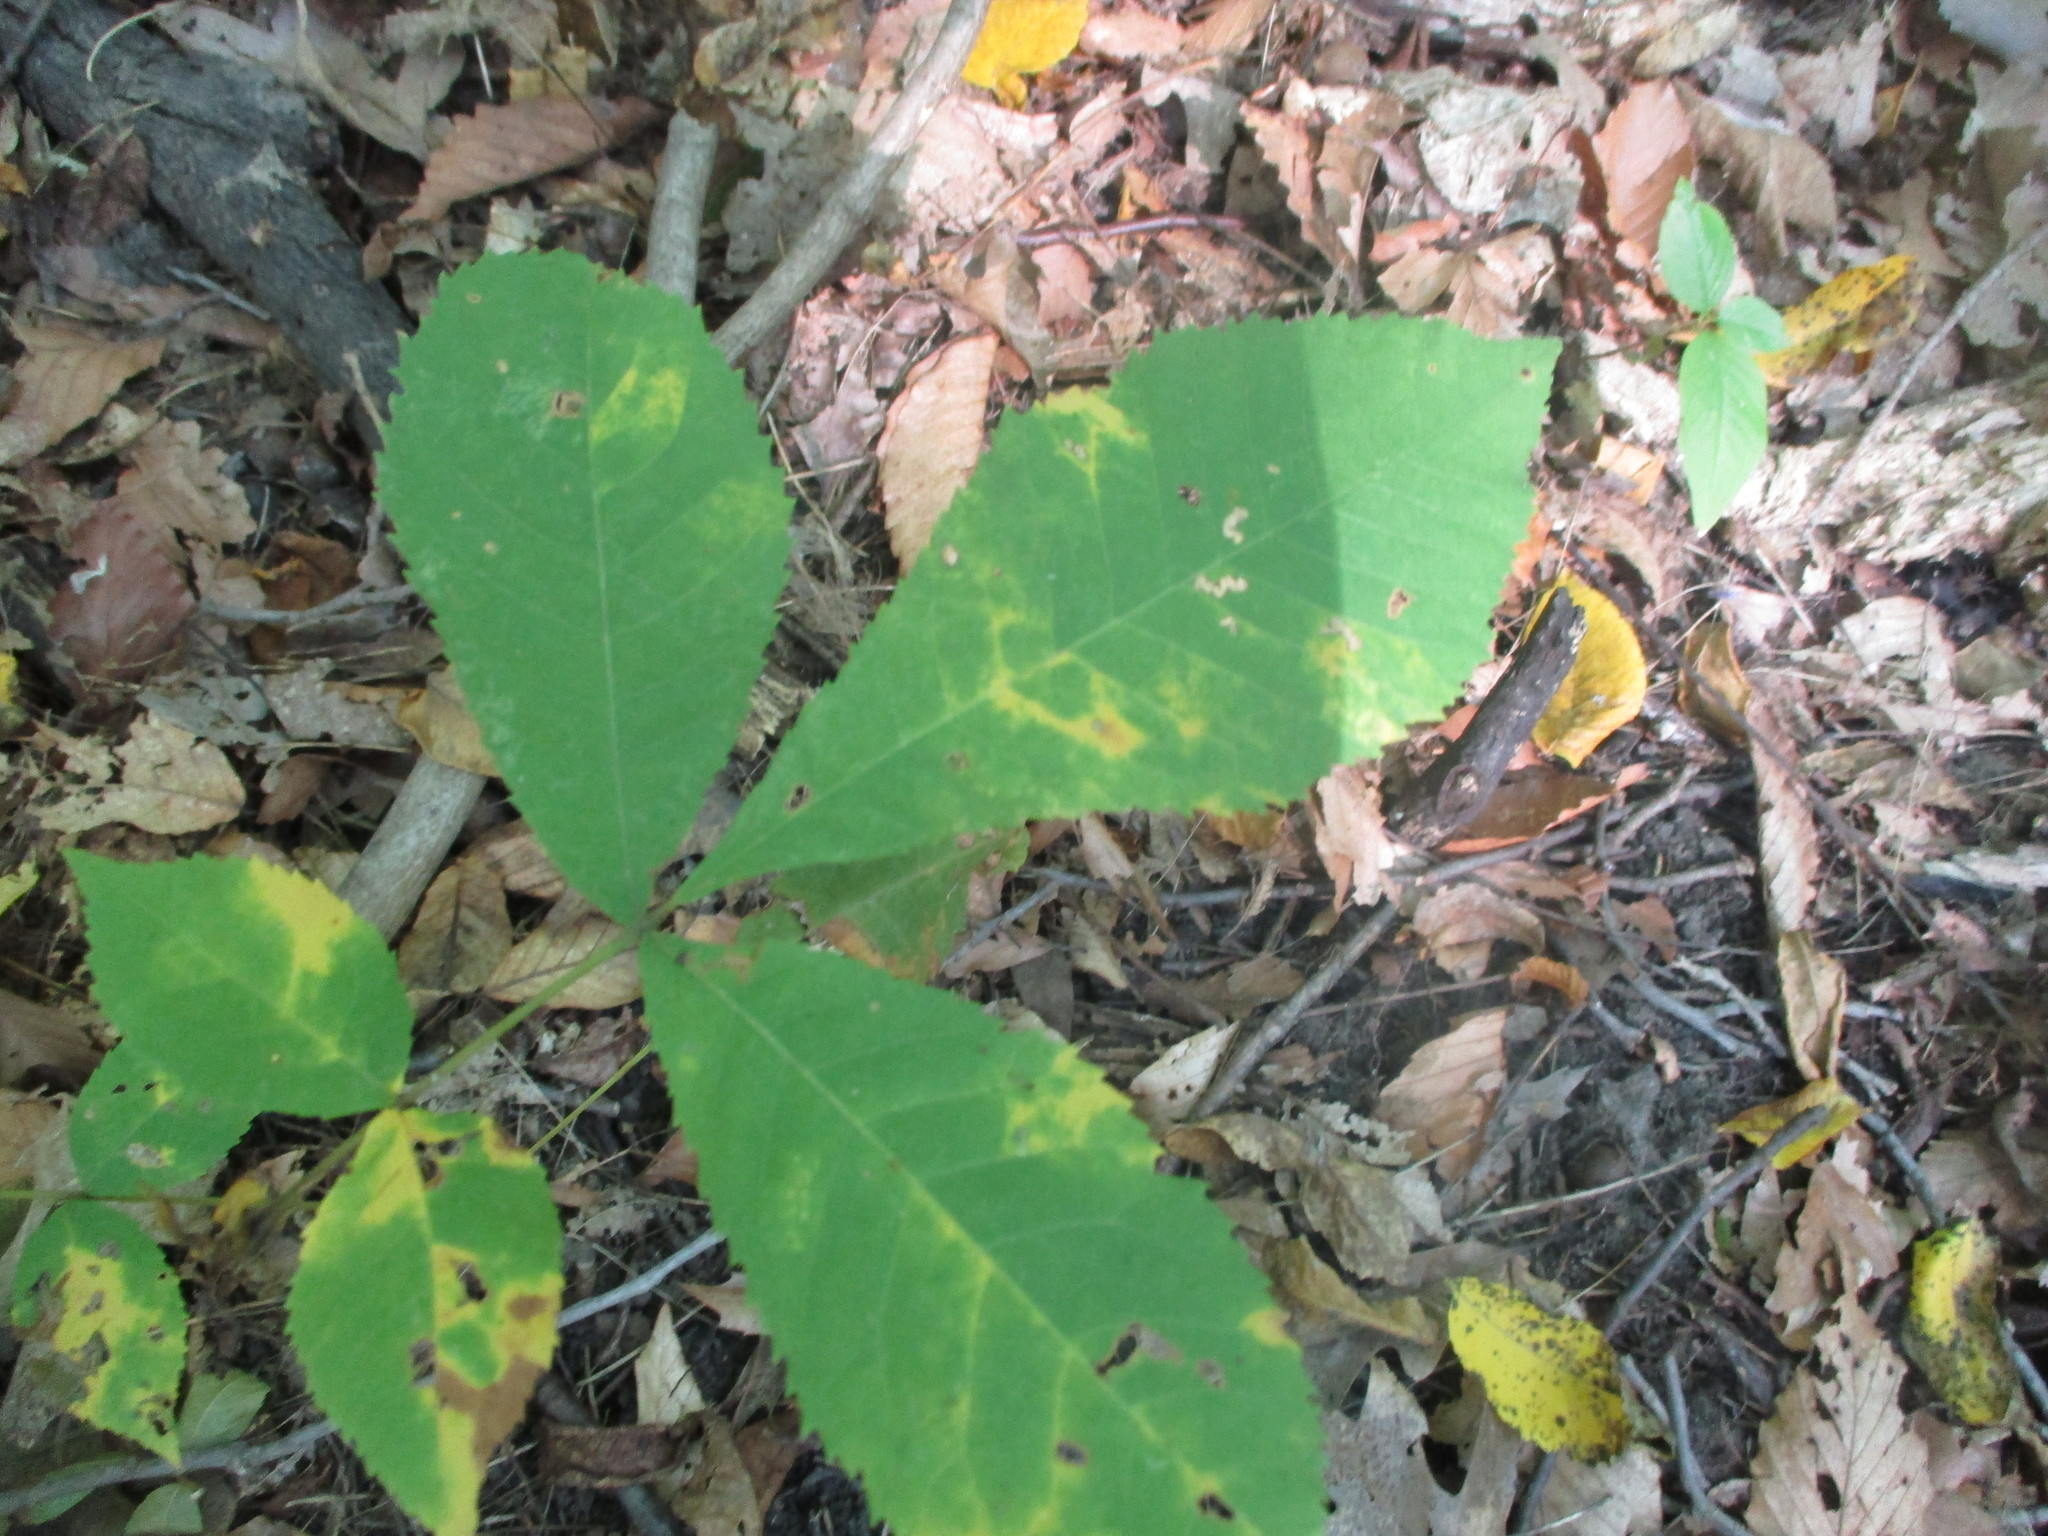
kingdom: Plantae
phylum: Tracheophyta
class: Magnoliopsida
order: Fagales
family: Juglandaceae
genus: Carya
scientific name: Carya cordiformis
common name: Bitternut hickory
